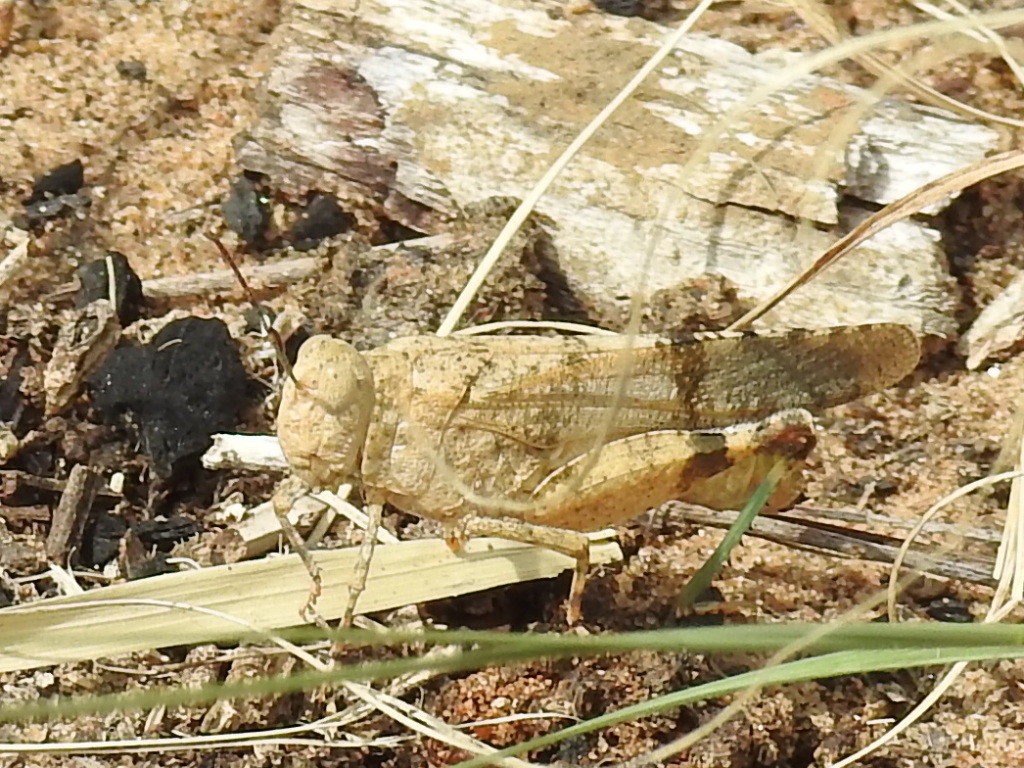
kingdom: Animalia
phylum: Arthropoda
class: Insecta
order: Orthoptera
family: Acrididae
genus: Lactista
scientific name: Lactista azteca
